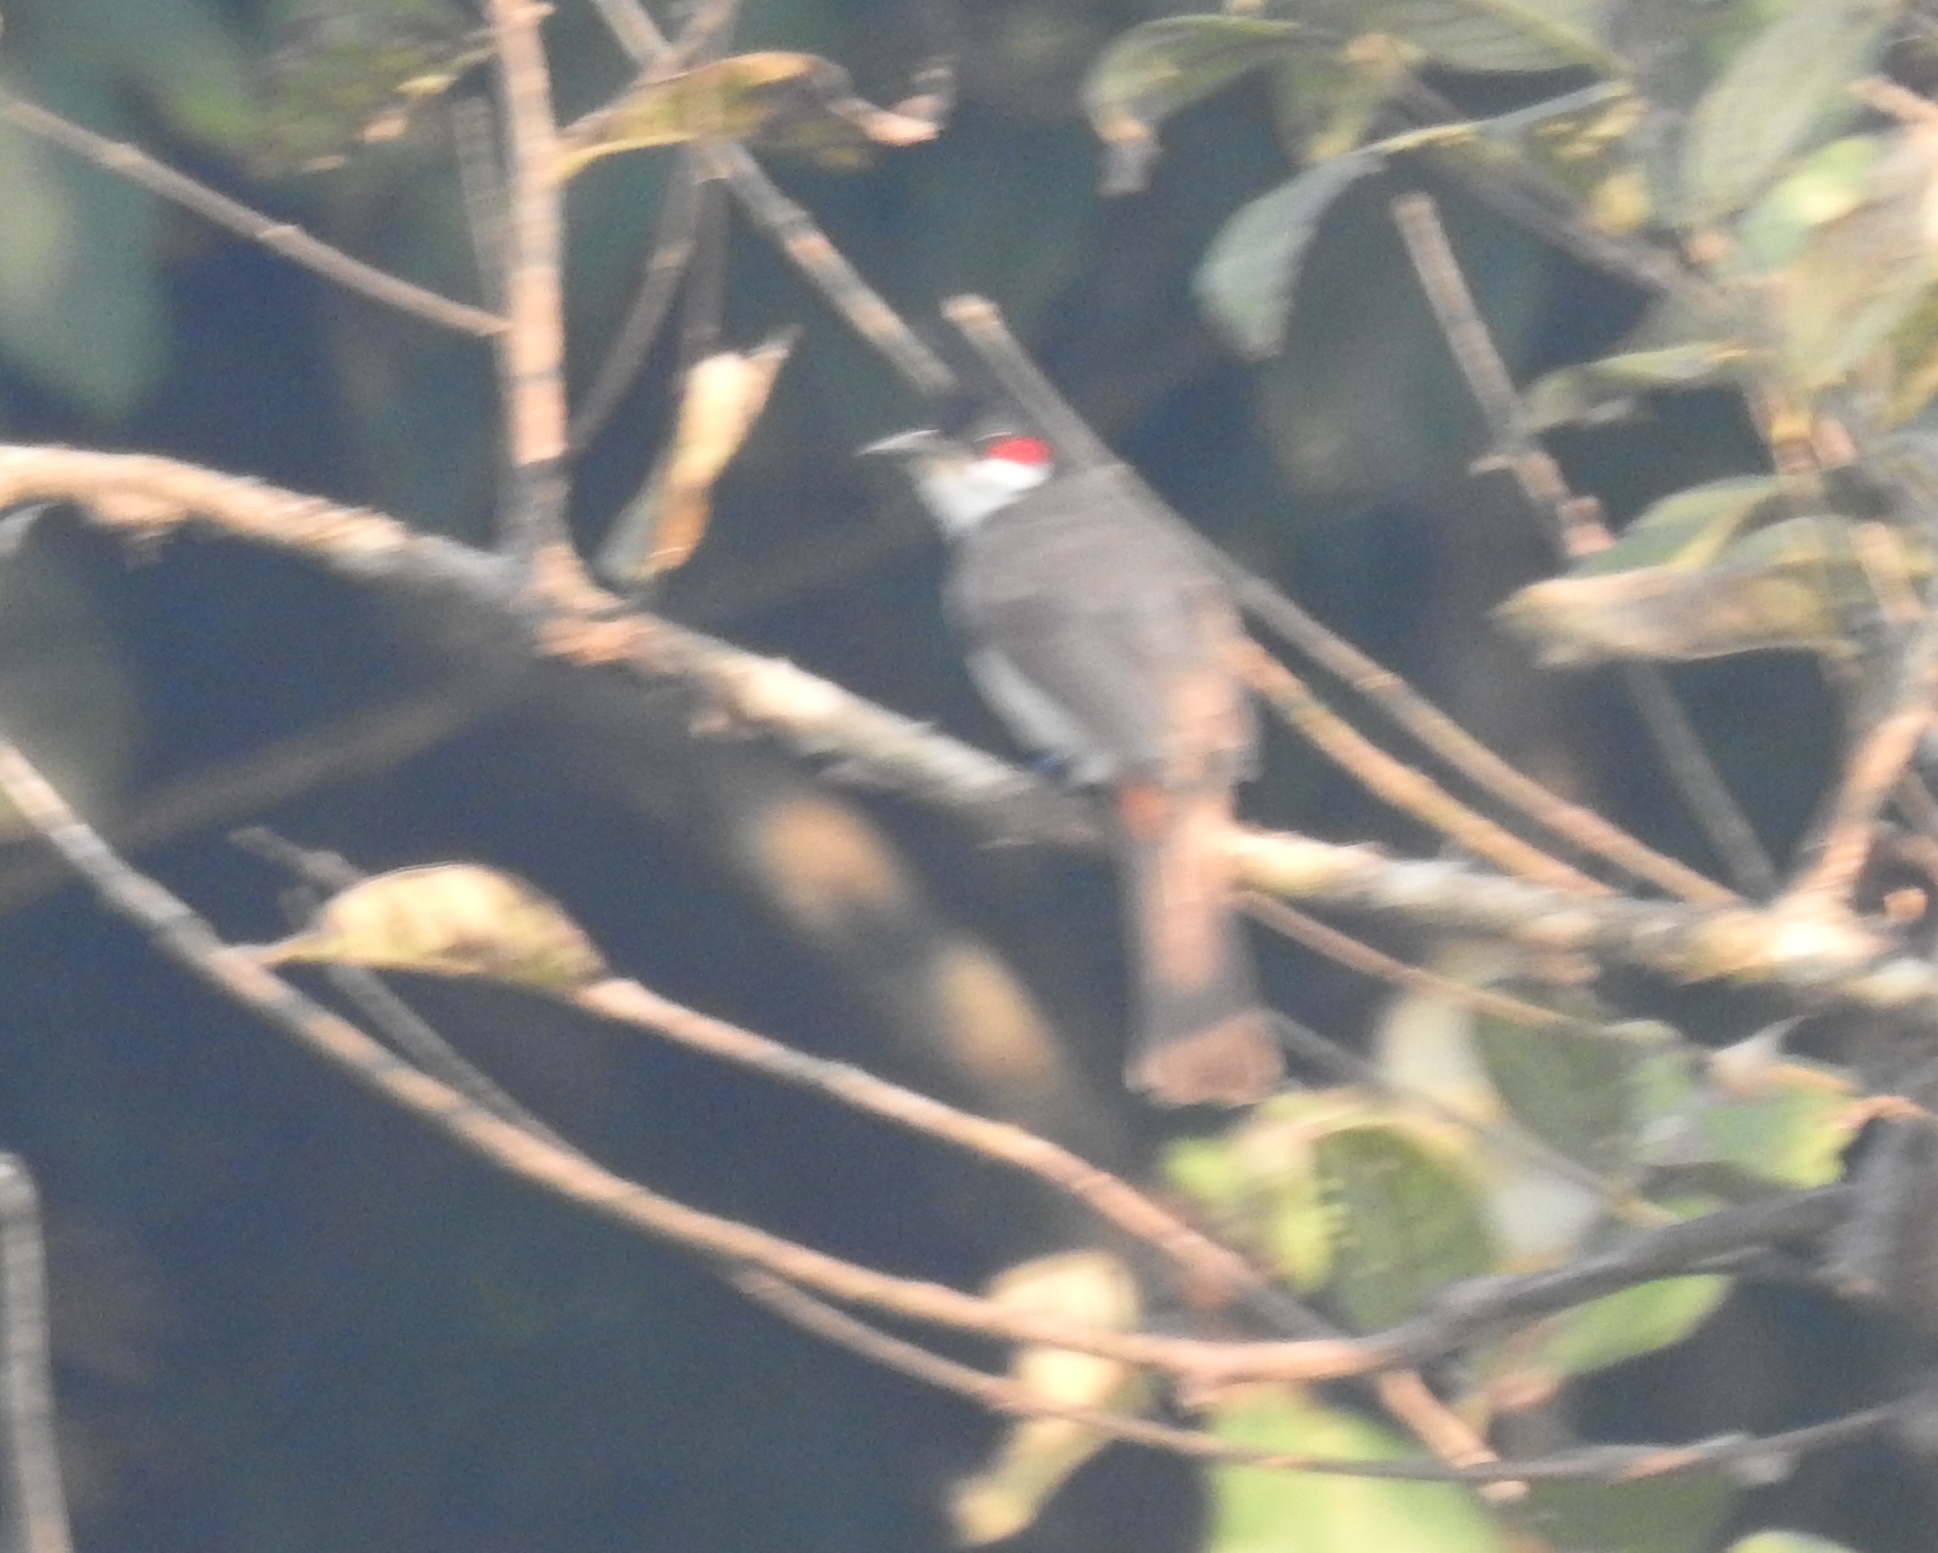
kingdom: Animalia
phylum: Chordata
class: Aves
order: Passeriformes
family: Pycnonotidae
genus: Pycnonotus
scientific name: Pycnonotus jocosus
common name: Red-whiskered bulbul
